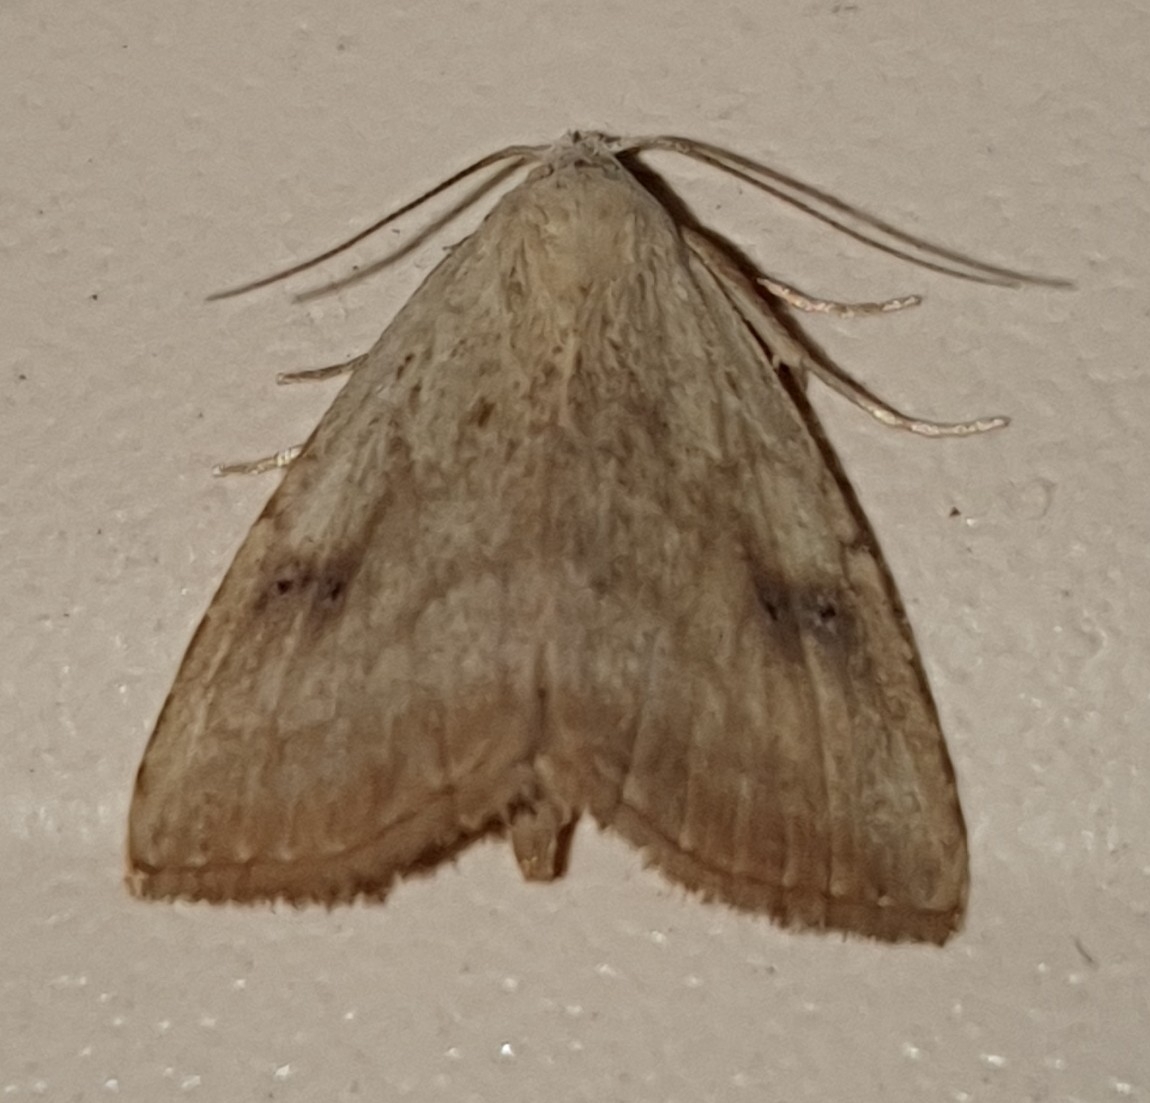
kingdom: Animalia
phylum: Arthropoda
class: Insecta
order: Lepidoptera
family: Erebidae
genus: Rivula
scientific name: Rivula sericealis
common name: Straw dot
